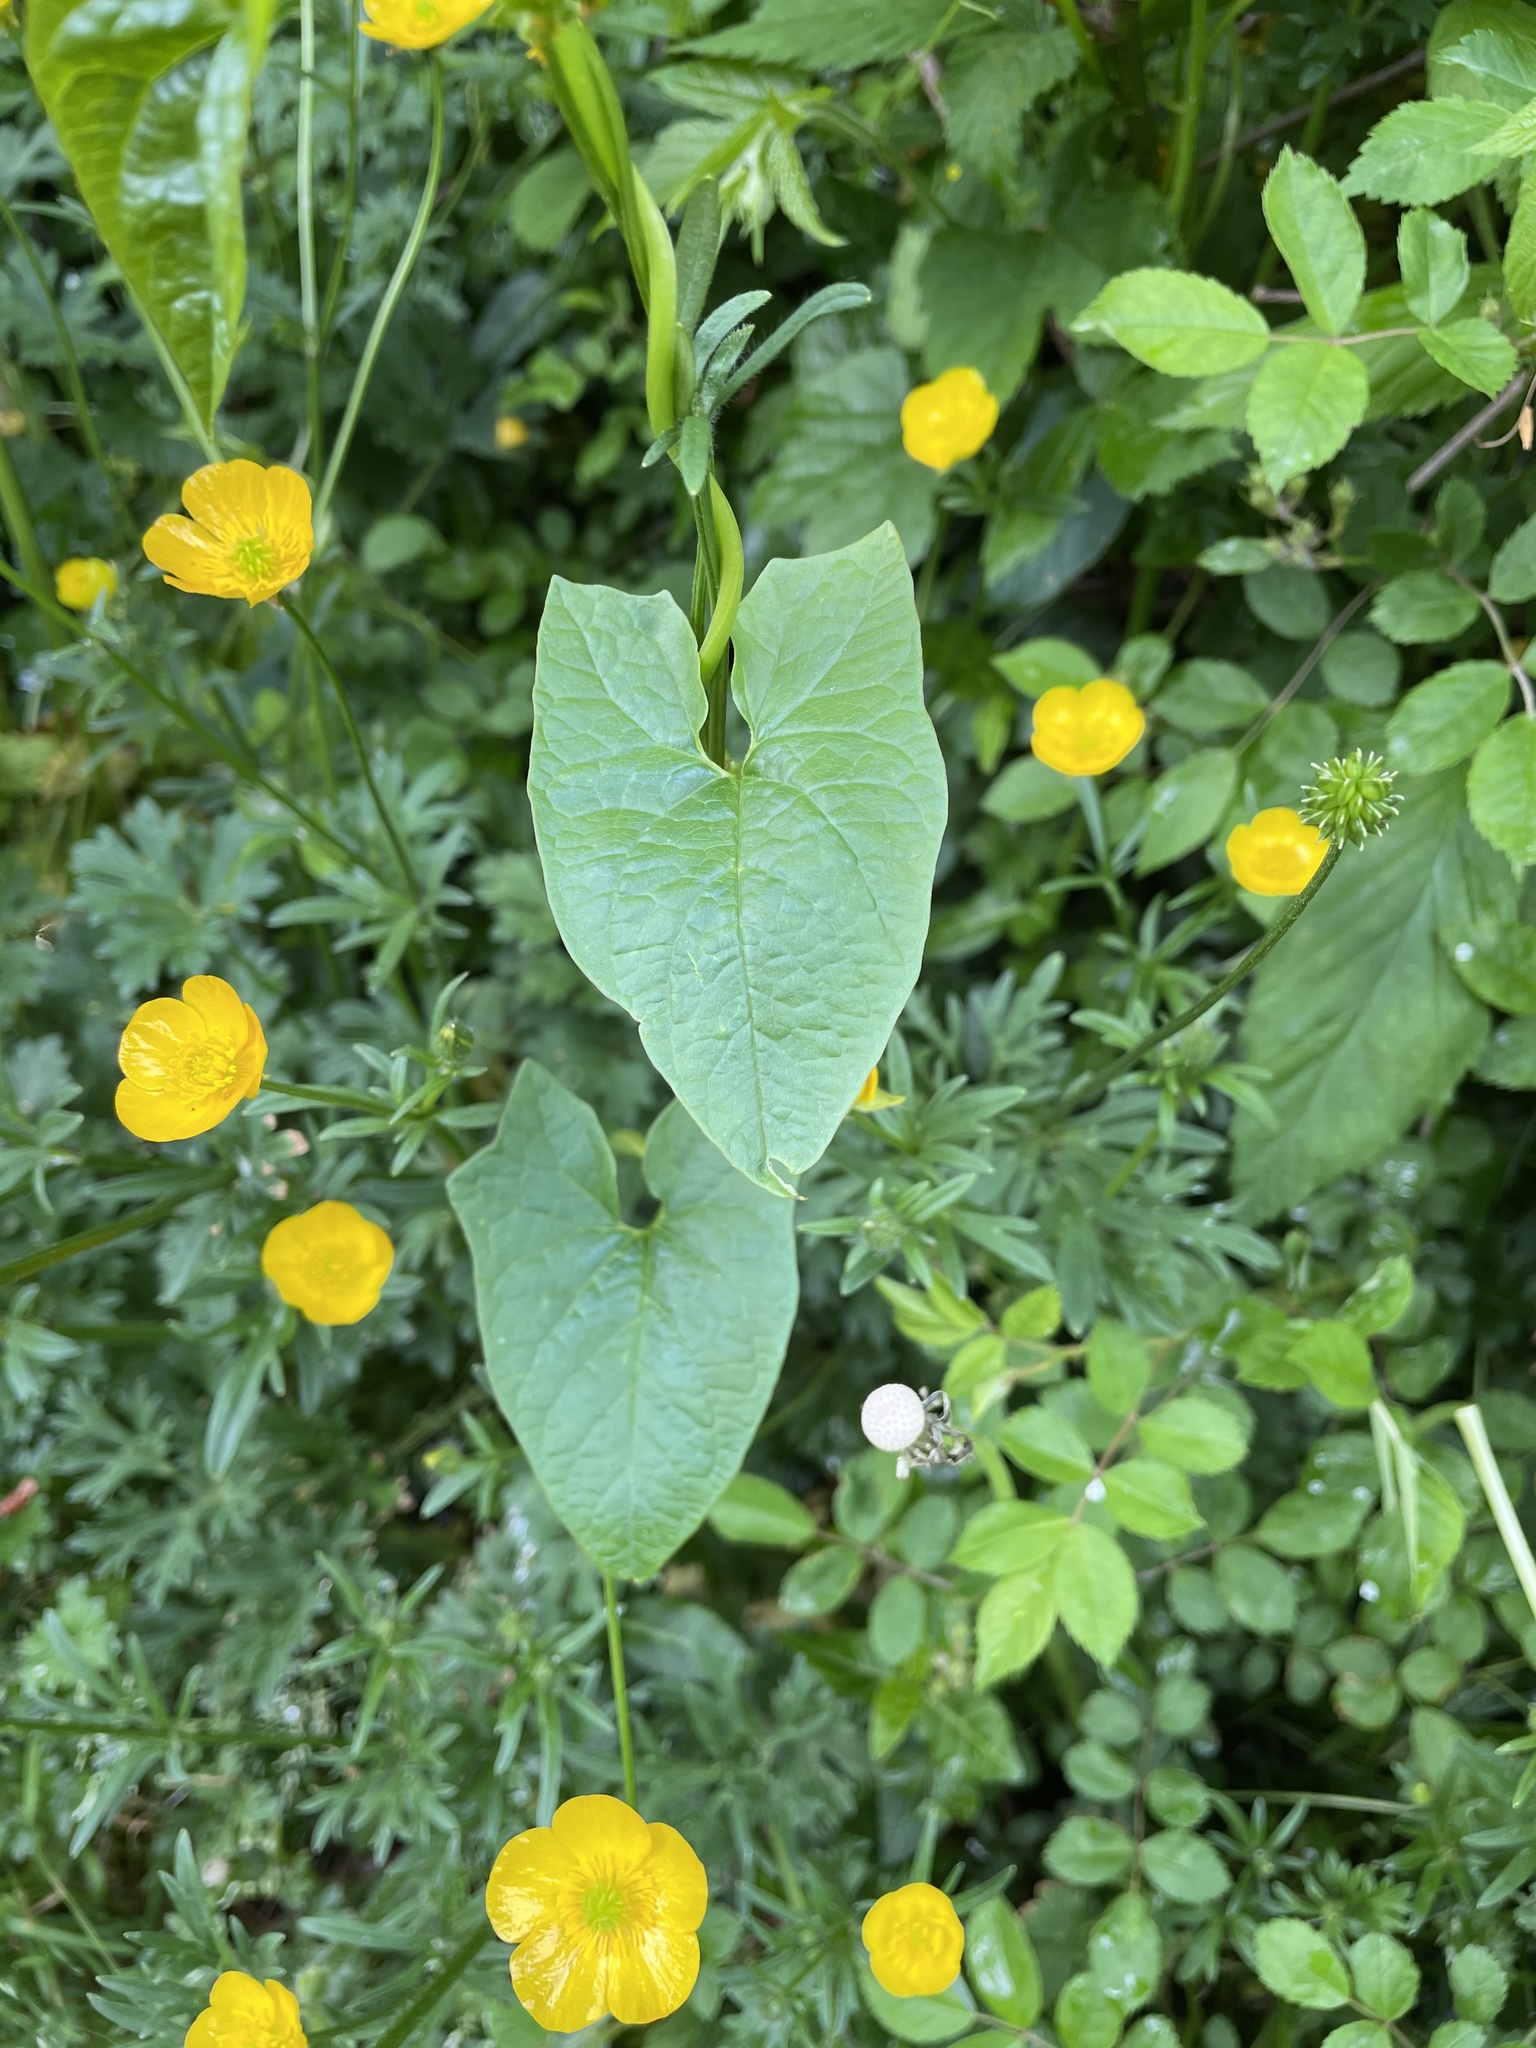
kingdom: Plantae
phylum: Tracheophyta
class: Magnoliopsida
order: Solanales
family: Convolvulaceae
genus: Calystegia
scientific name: Calystegia sepium
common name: Hedge bindweed
